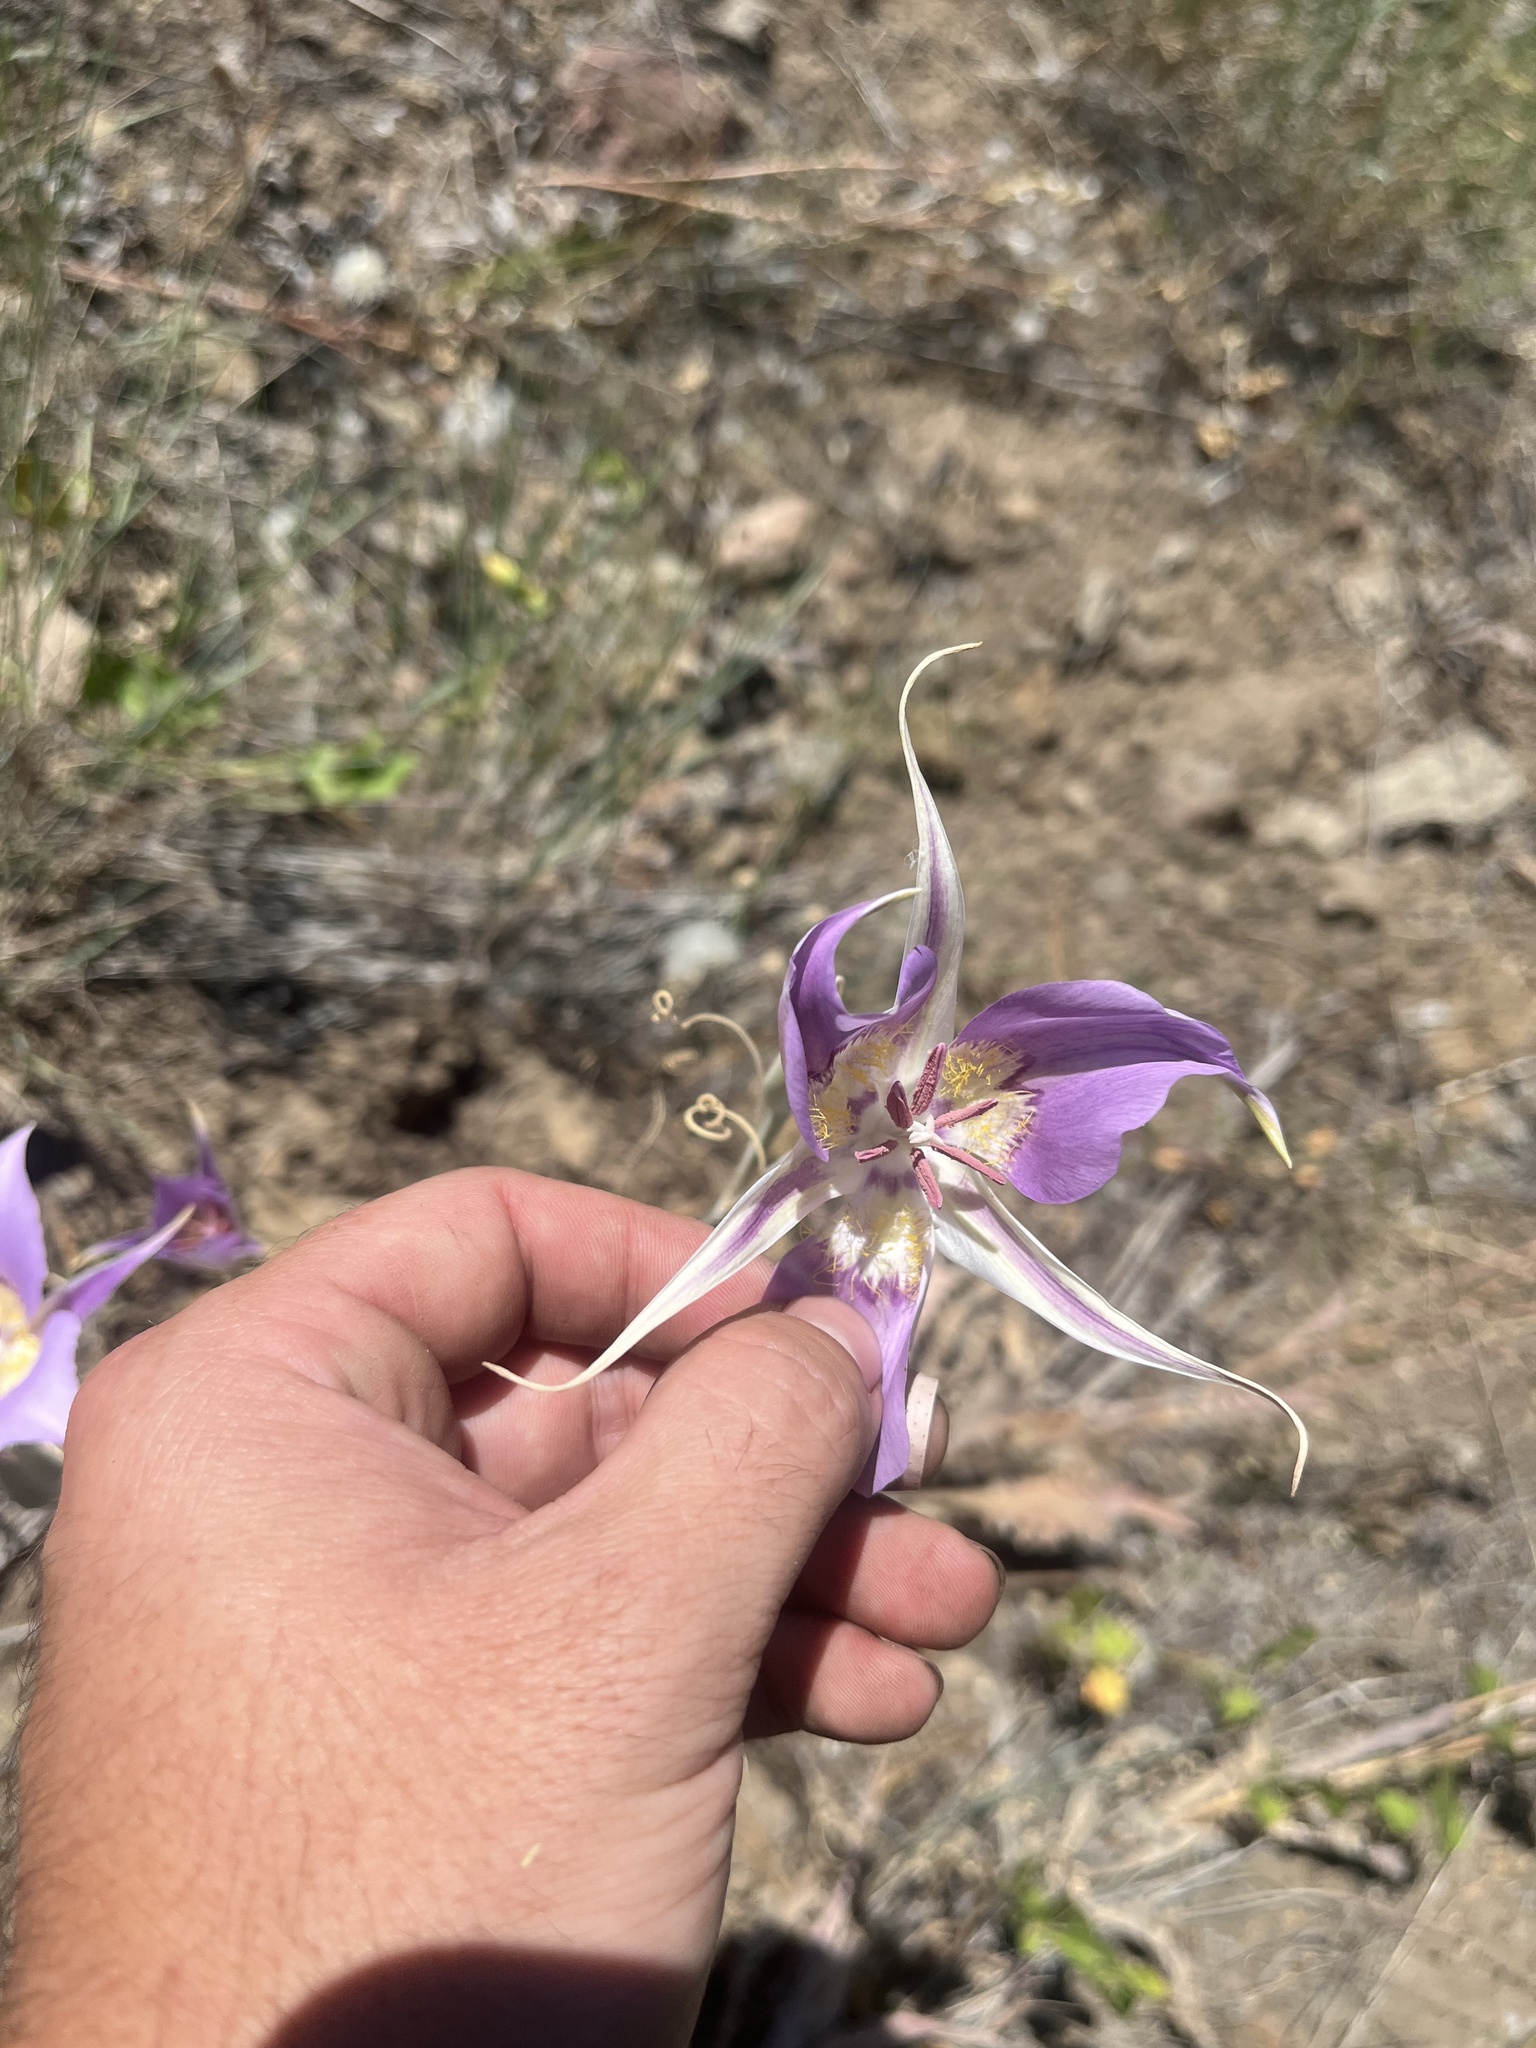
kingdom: Plantae
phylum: Tracheophyta
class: Liliopsida
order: Liliales
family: Liliaceae
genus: Calochortus
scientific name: Calochortus macrocarpus
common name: Green-band mariposa lily
